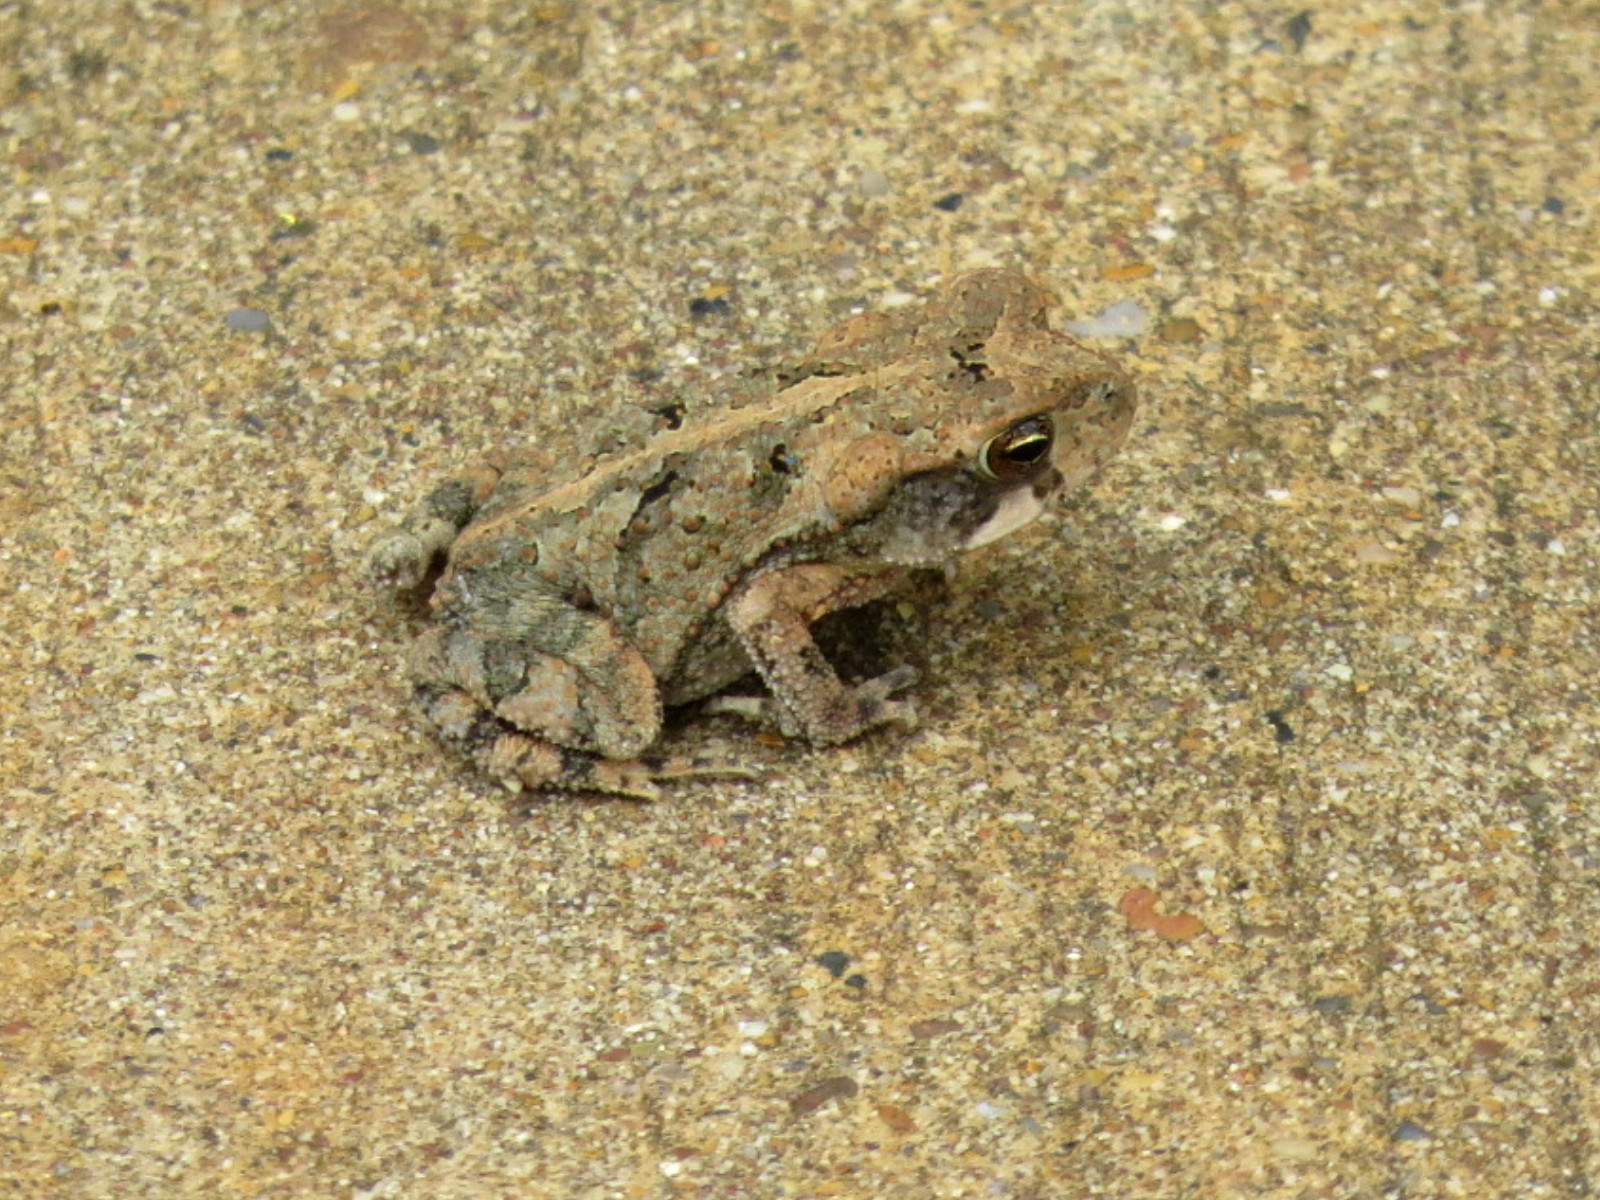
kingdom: Animalia
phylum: Chordata
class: Amphibia
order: Anura
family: Bufonidae
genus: Incilius
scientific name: Incilius nebulifer
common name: Gulf coast toad
